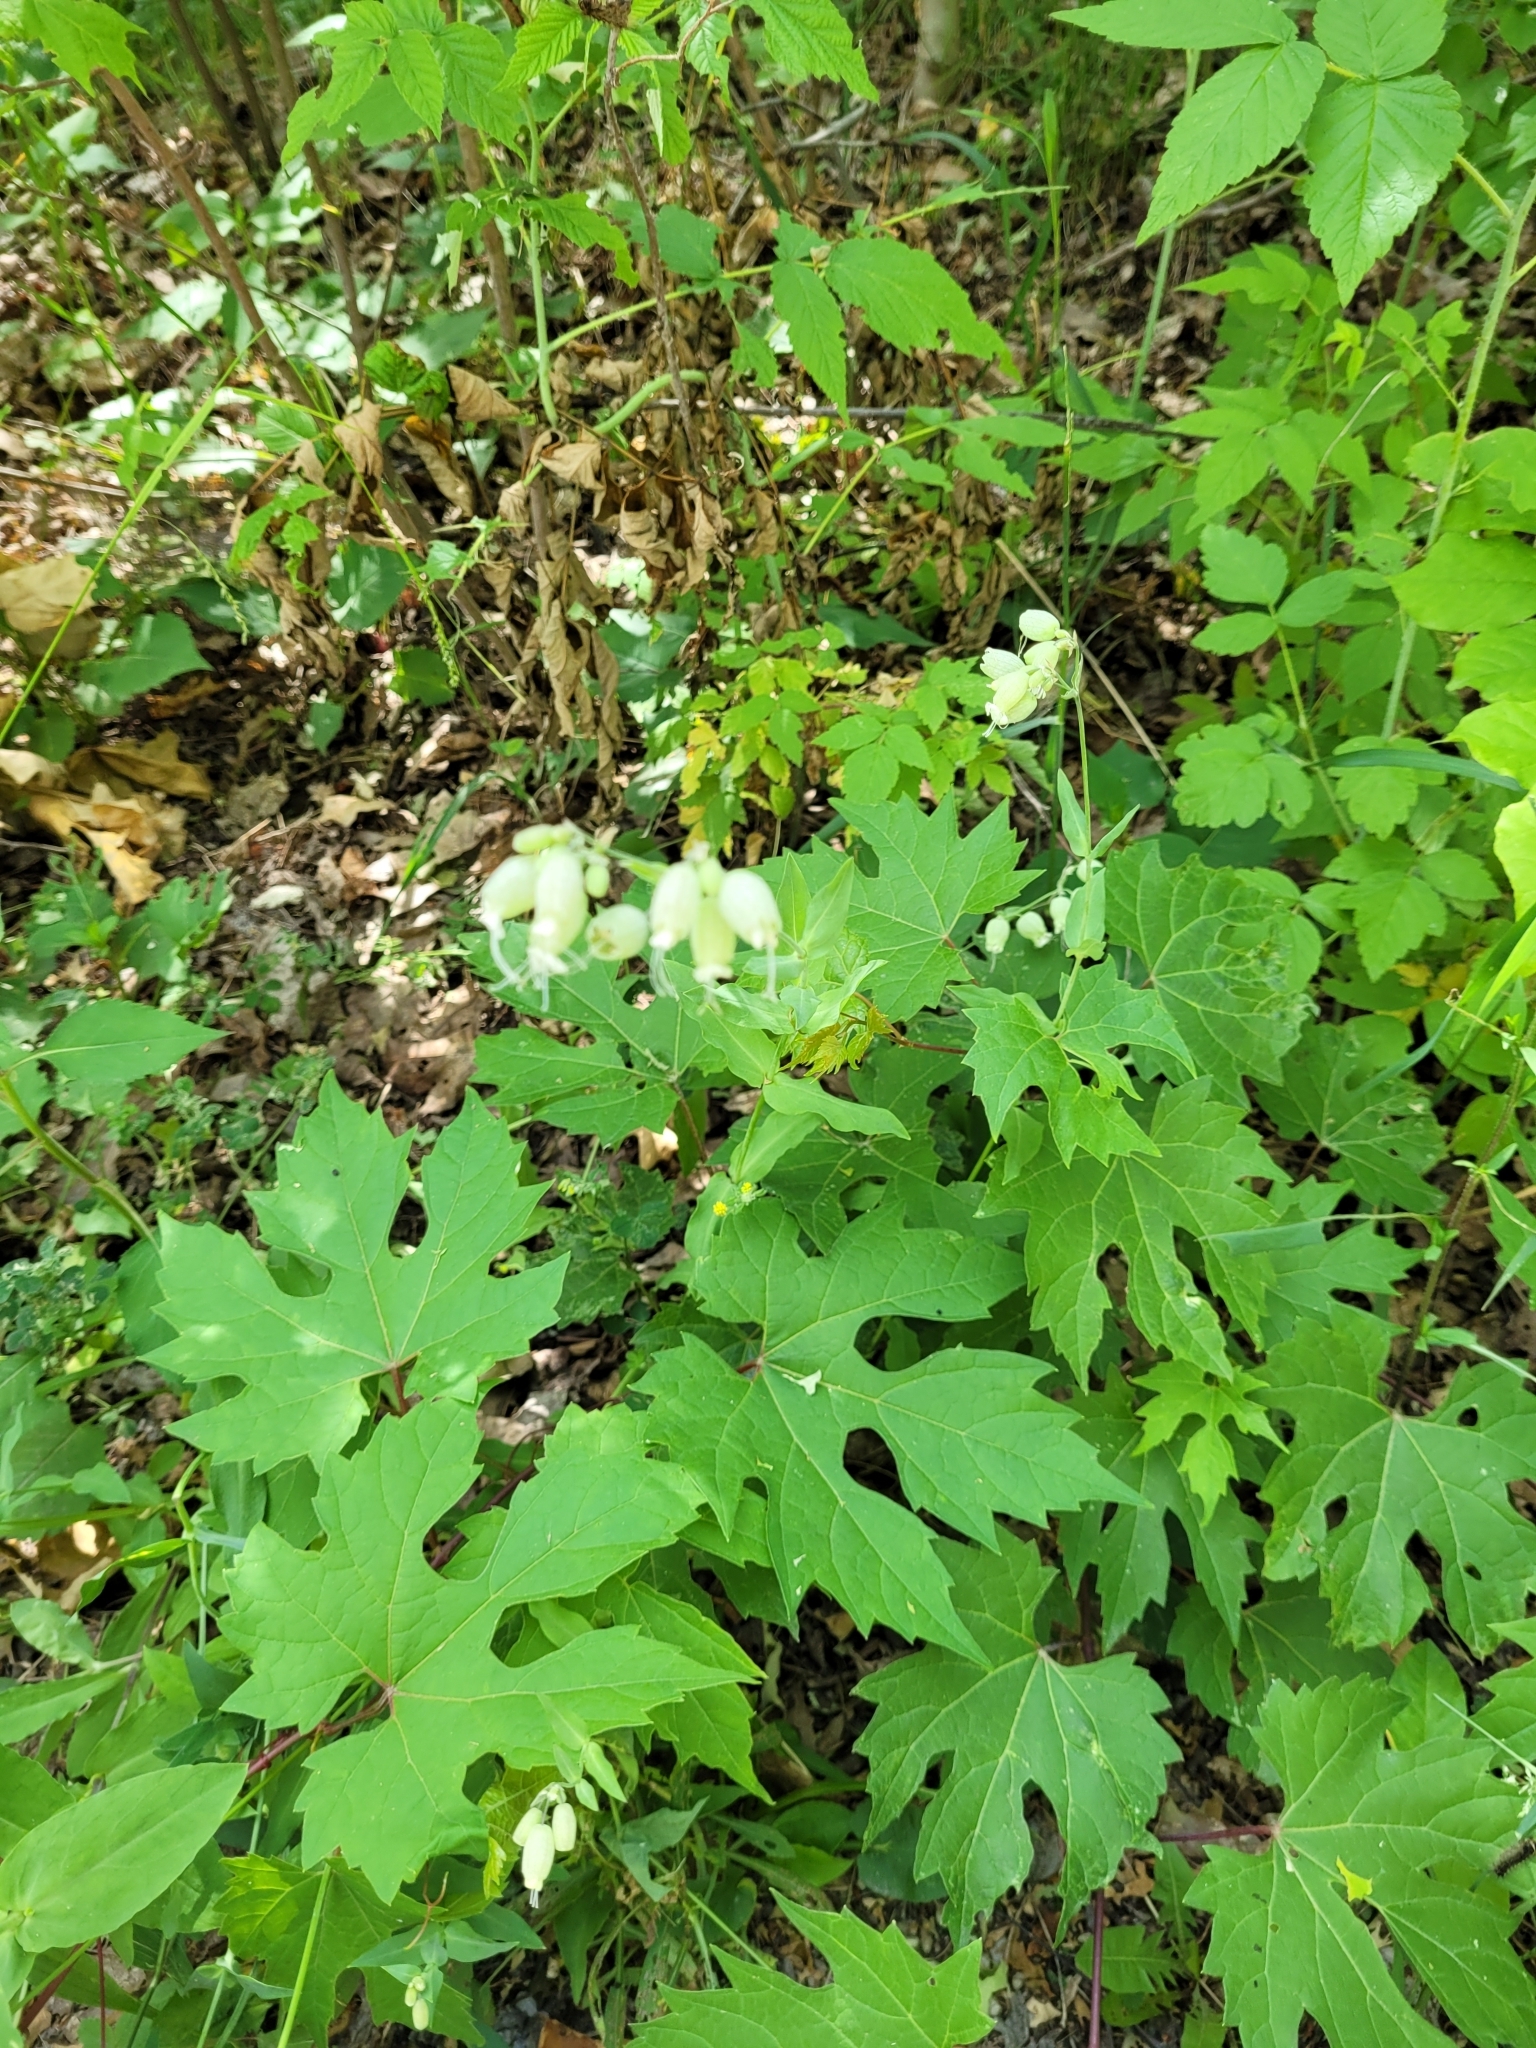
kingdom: Plantae
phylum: Tracheophyta
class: Magnoliopsida
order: Caryophyllales
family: Caryophyllaceae
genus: Silene
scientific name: Silene vulgaris
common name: Bladder campion
